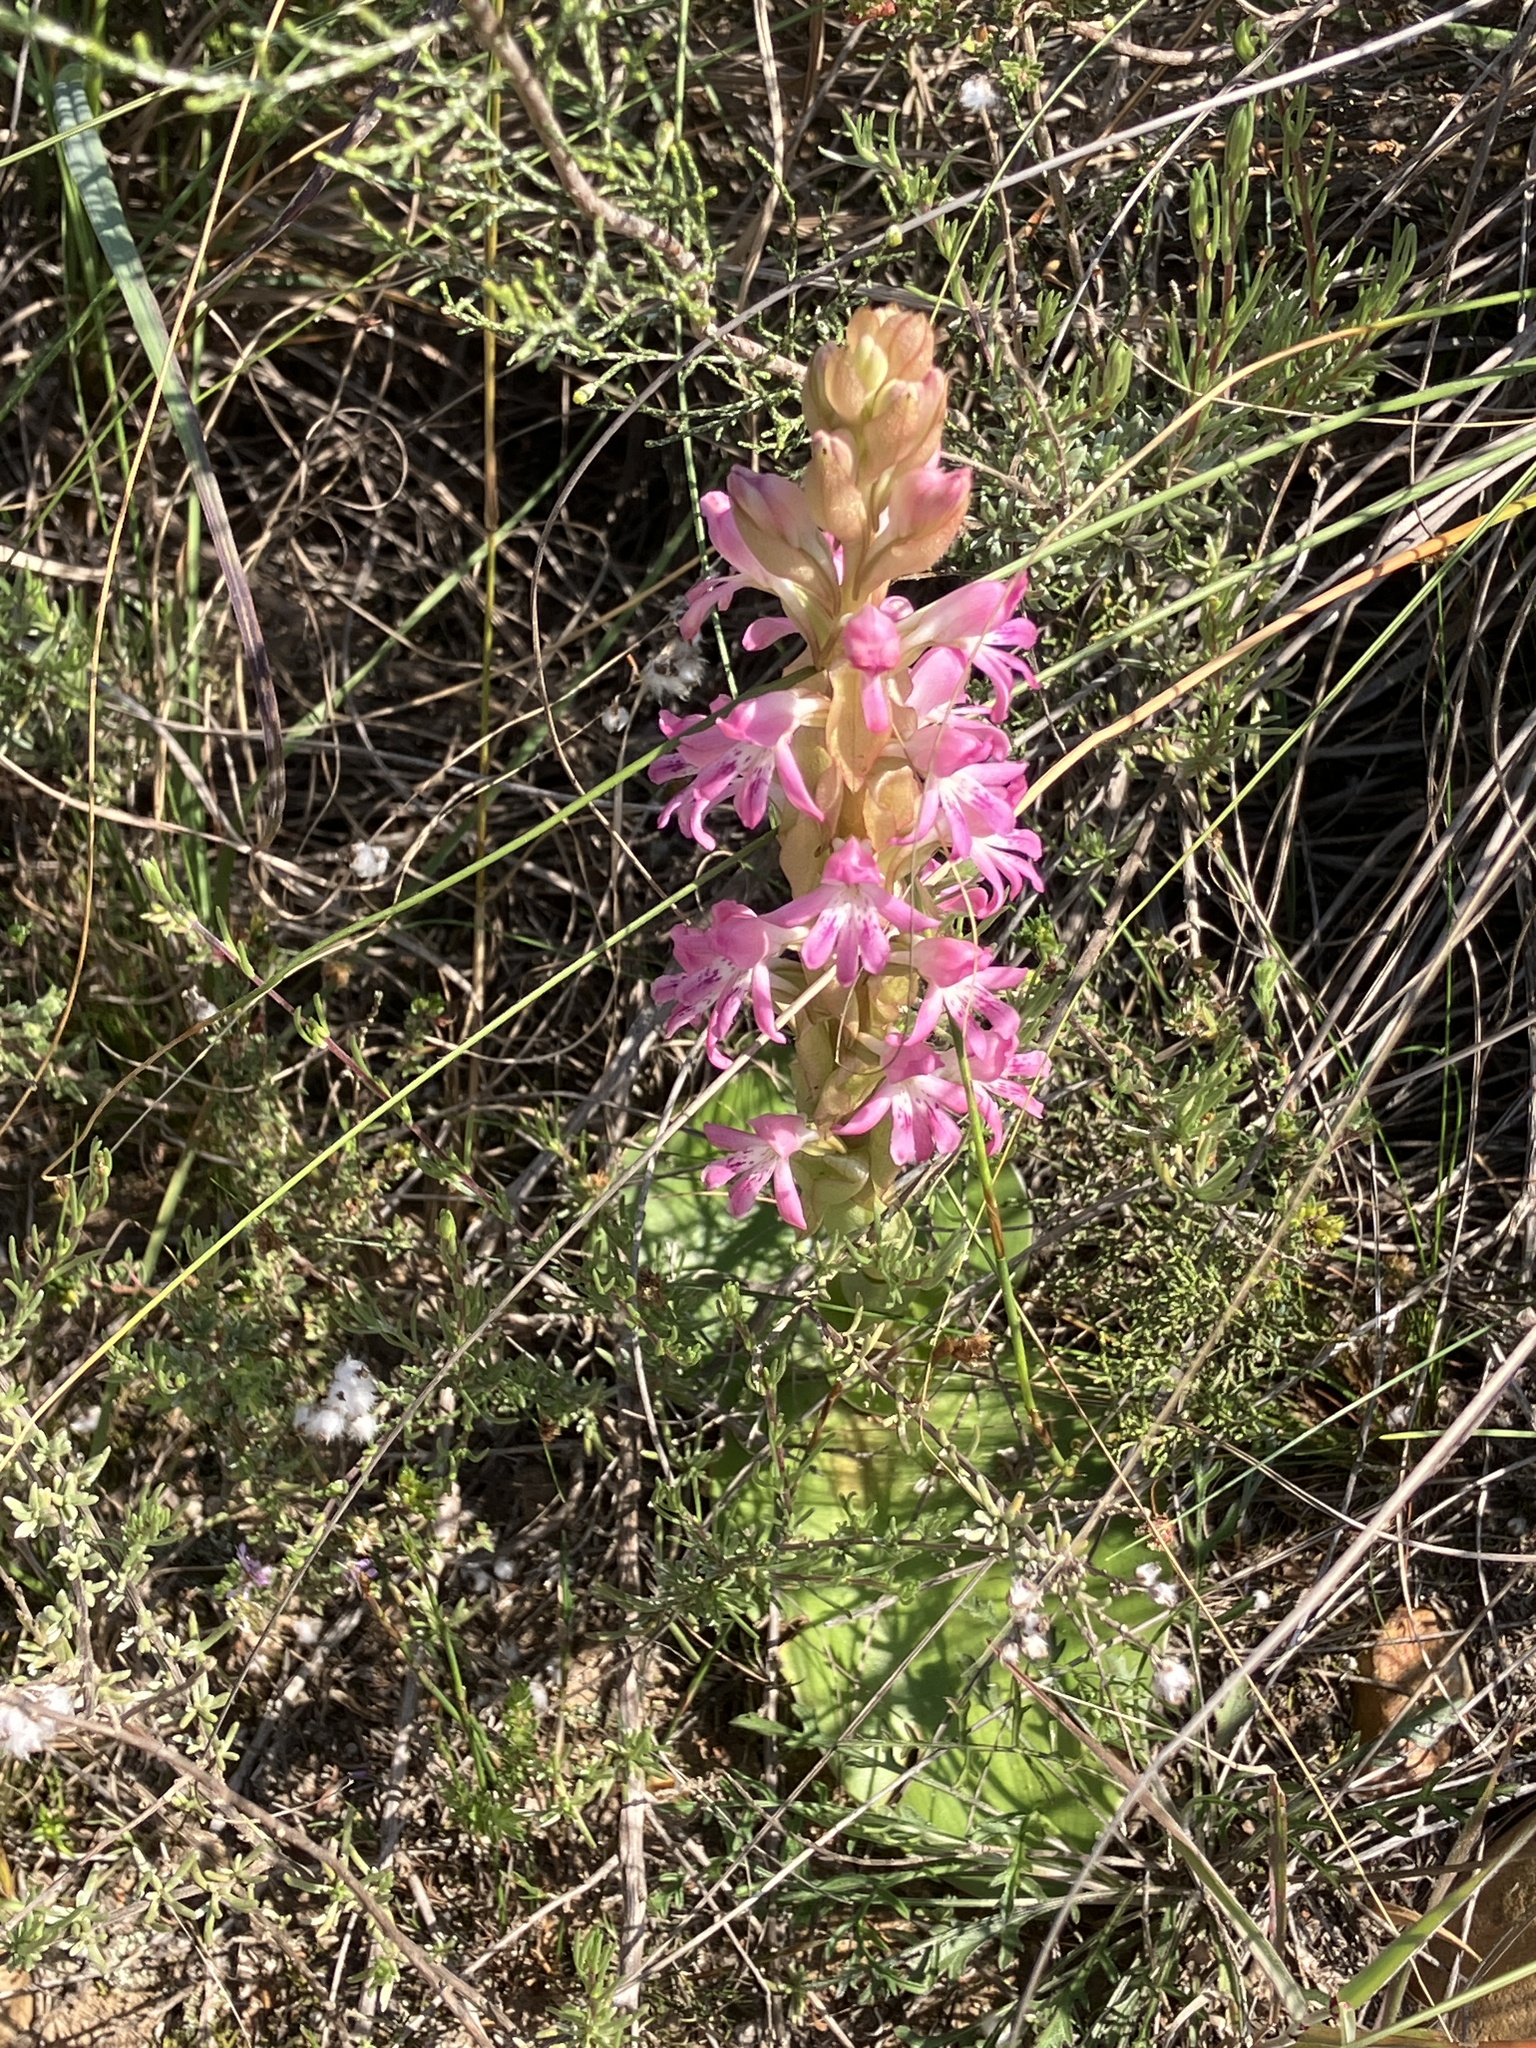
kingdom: Plantae
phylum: Tracheophyta
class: Liliopsida
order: Asparagales
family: Orchidaceae
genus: Satyrium
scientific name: Satyrium erectum
